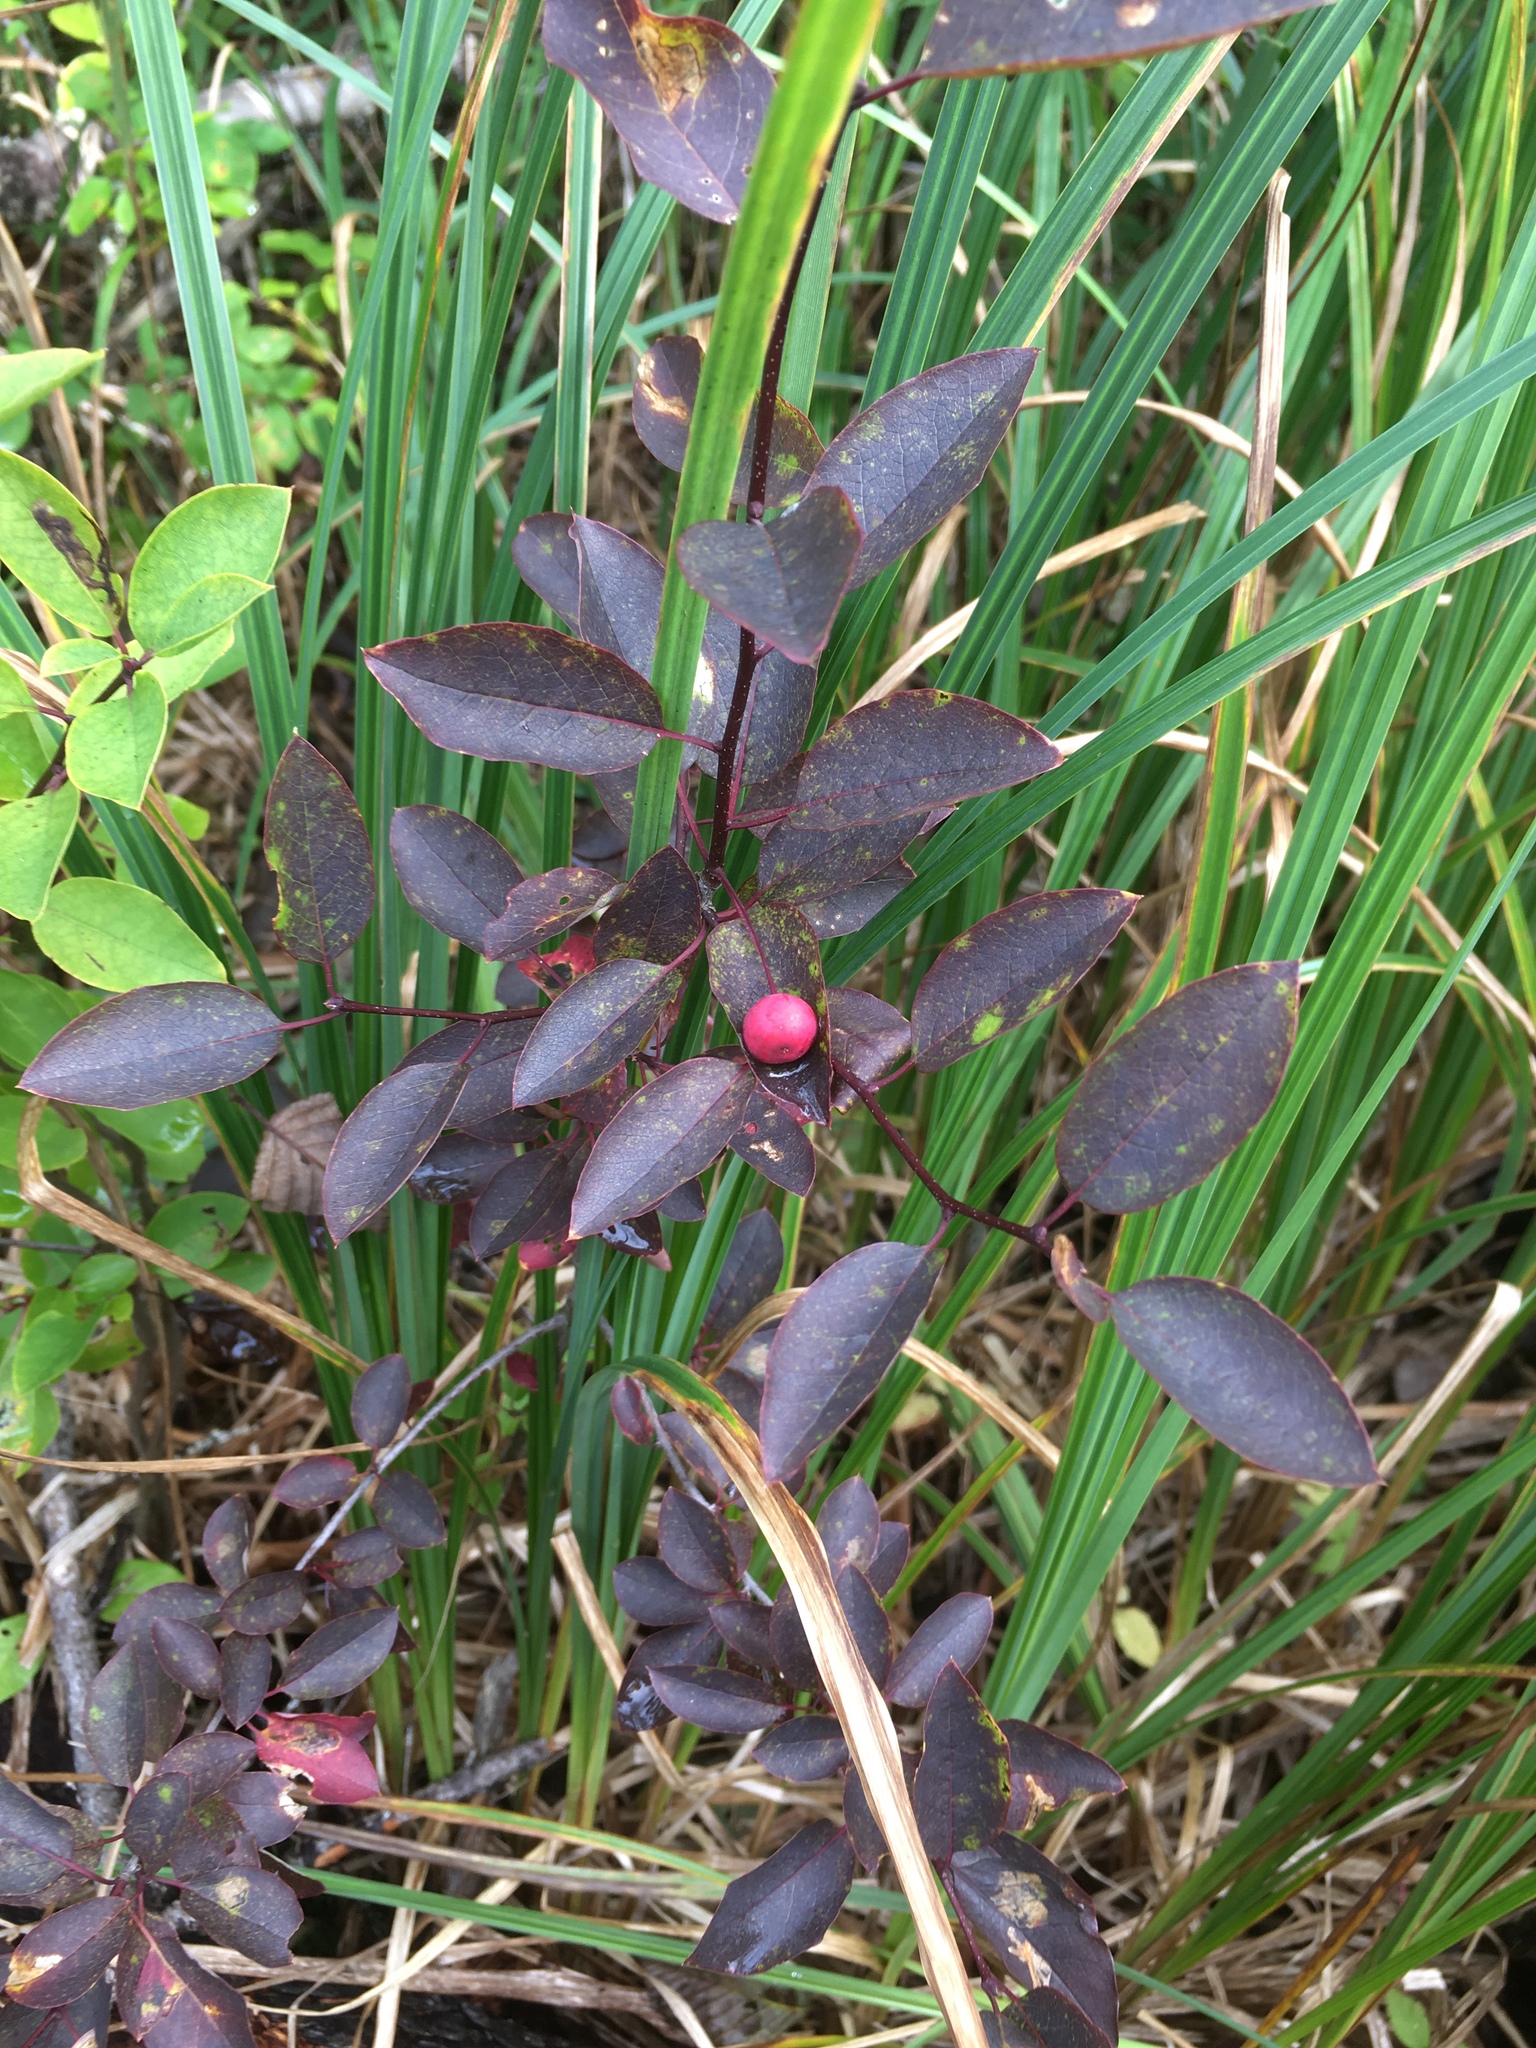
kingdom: Plantae
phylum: Tracheophyta
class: Magnoliopsida
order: Aquifoliales
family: Aquifoliaceae
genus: Ilex
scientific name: Ilex mucronata
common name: Catberry
